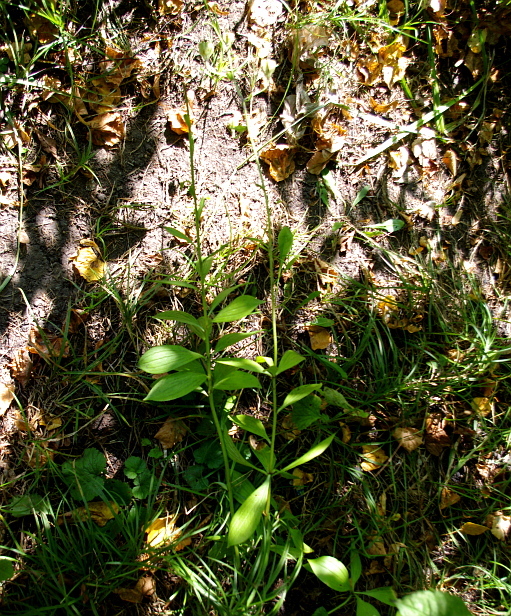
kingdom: Plantae
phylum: Tracheophyta
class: Liliopsida
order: Liliales
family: Liliaceae
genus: Lilium
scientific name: Lilium martagon
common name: Martagon lily
